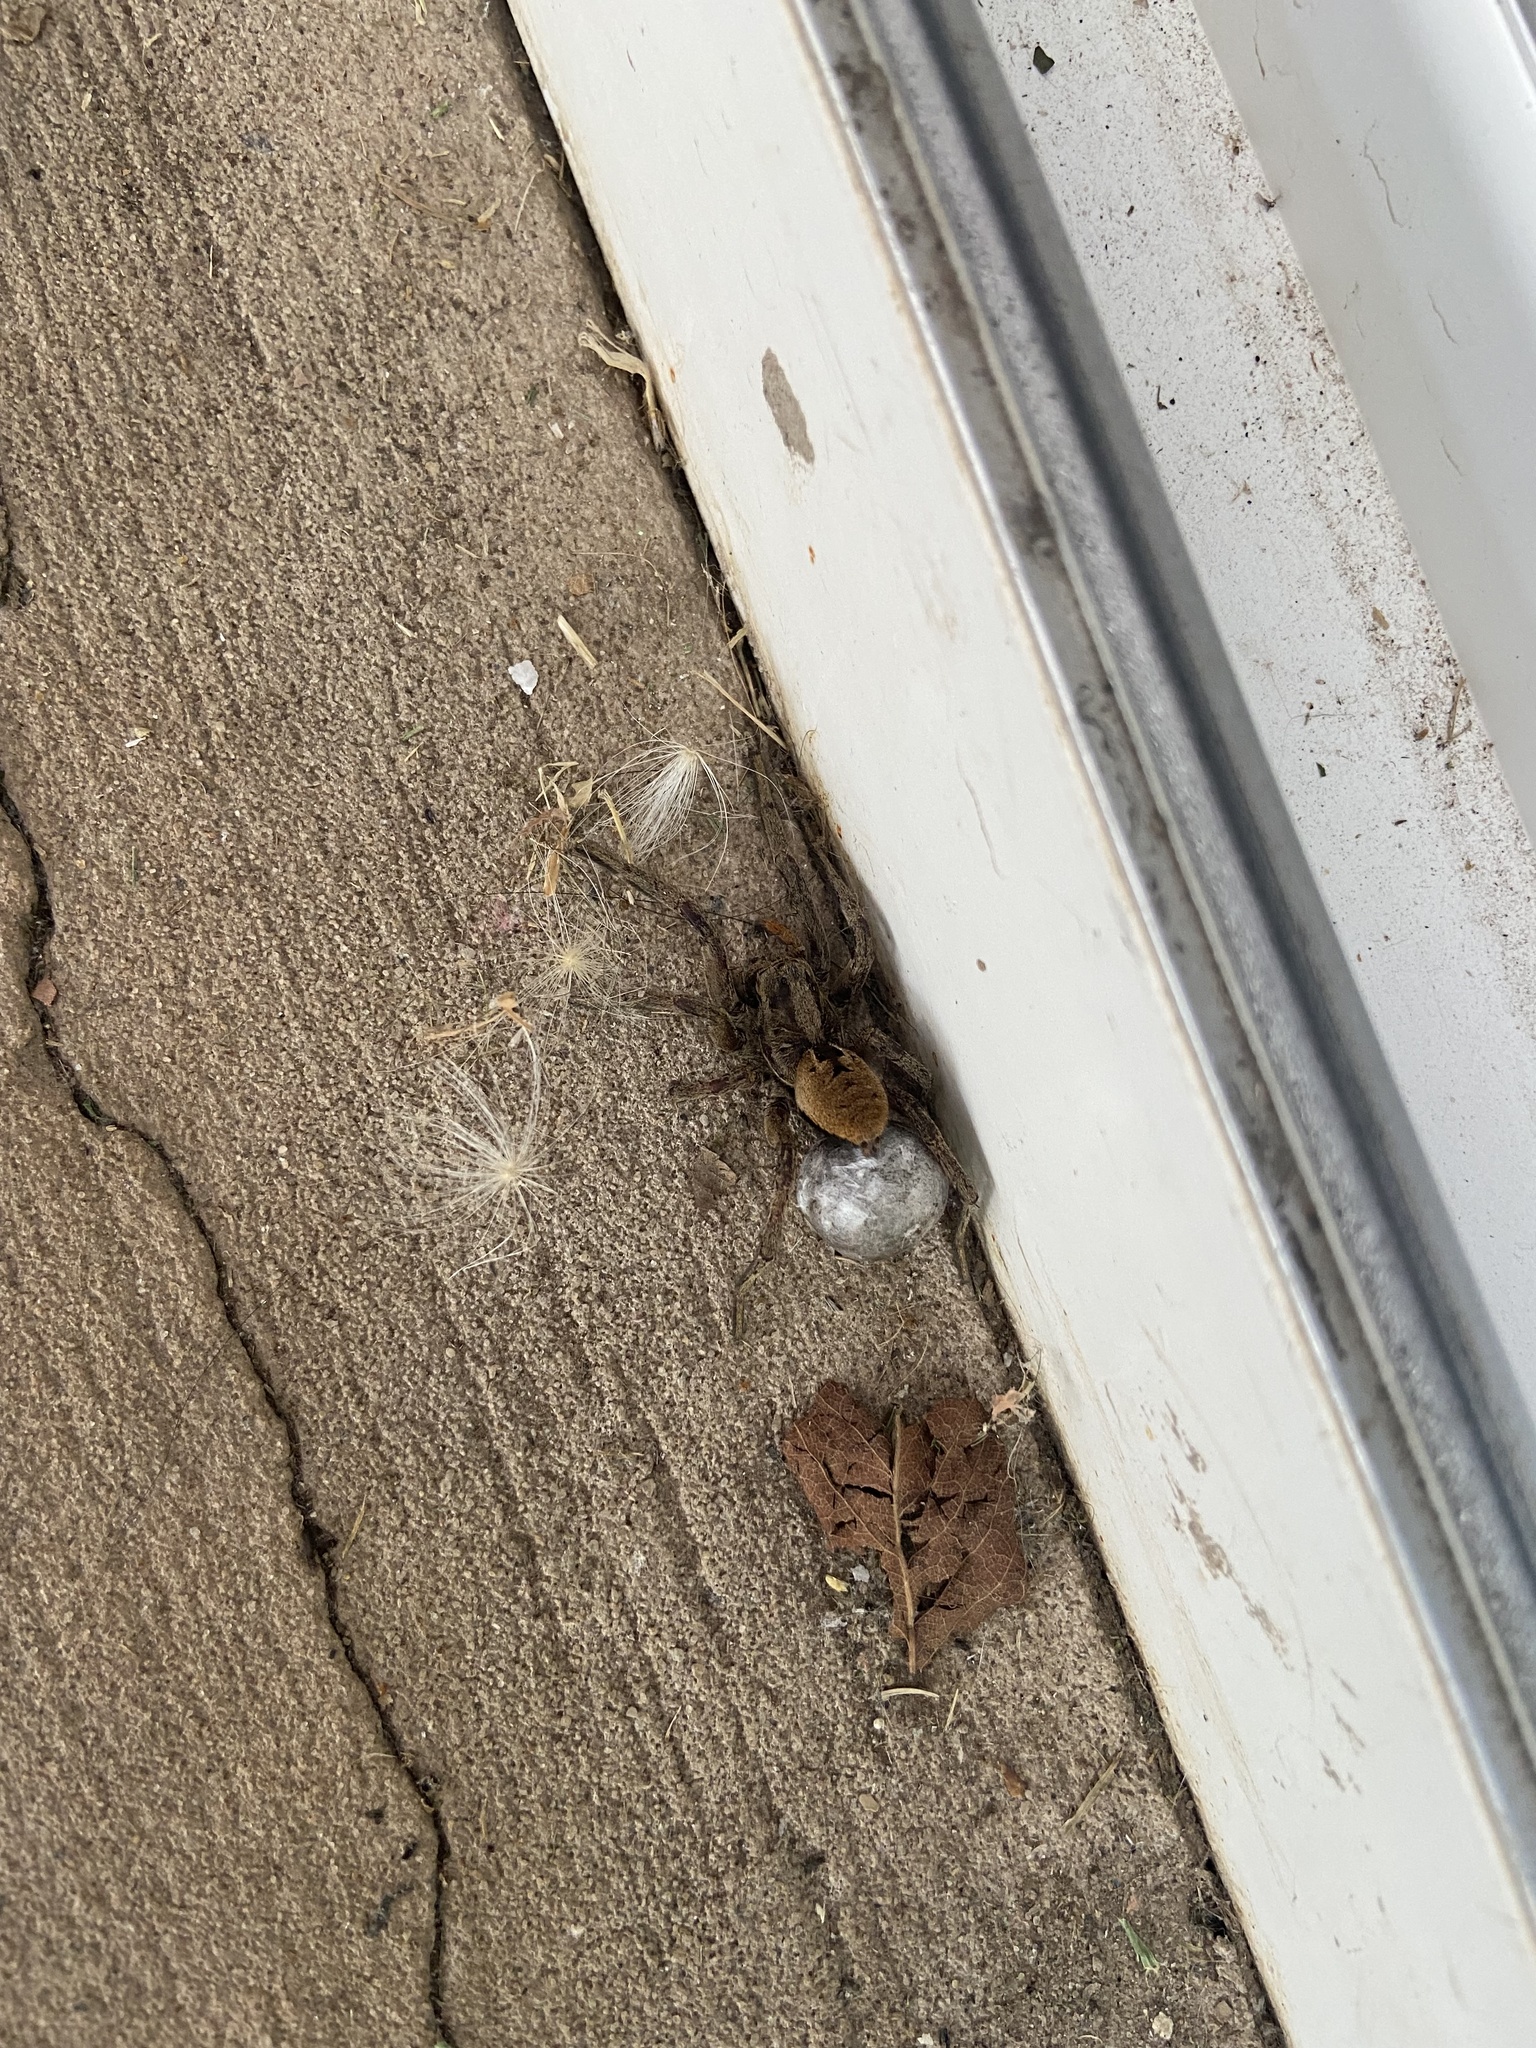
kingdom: Animalia
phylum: Arthropoda
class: Arachnida
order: Araneae
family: Lycosidae
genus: Lycosa
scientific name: Lycosa erythrognatha
